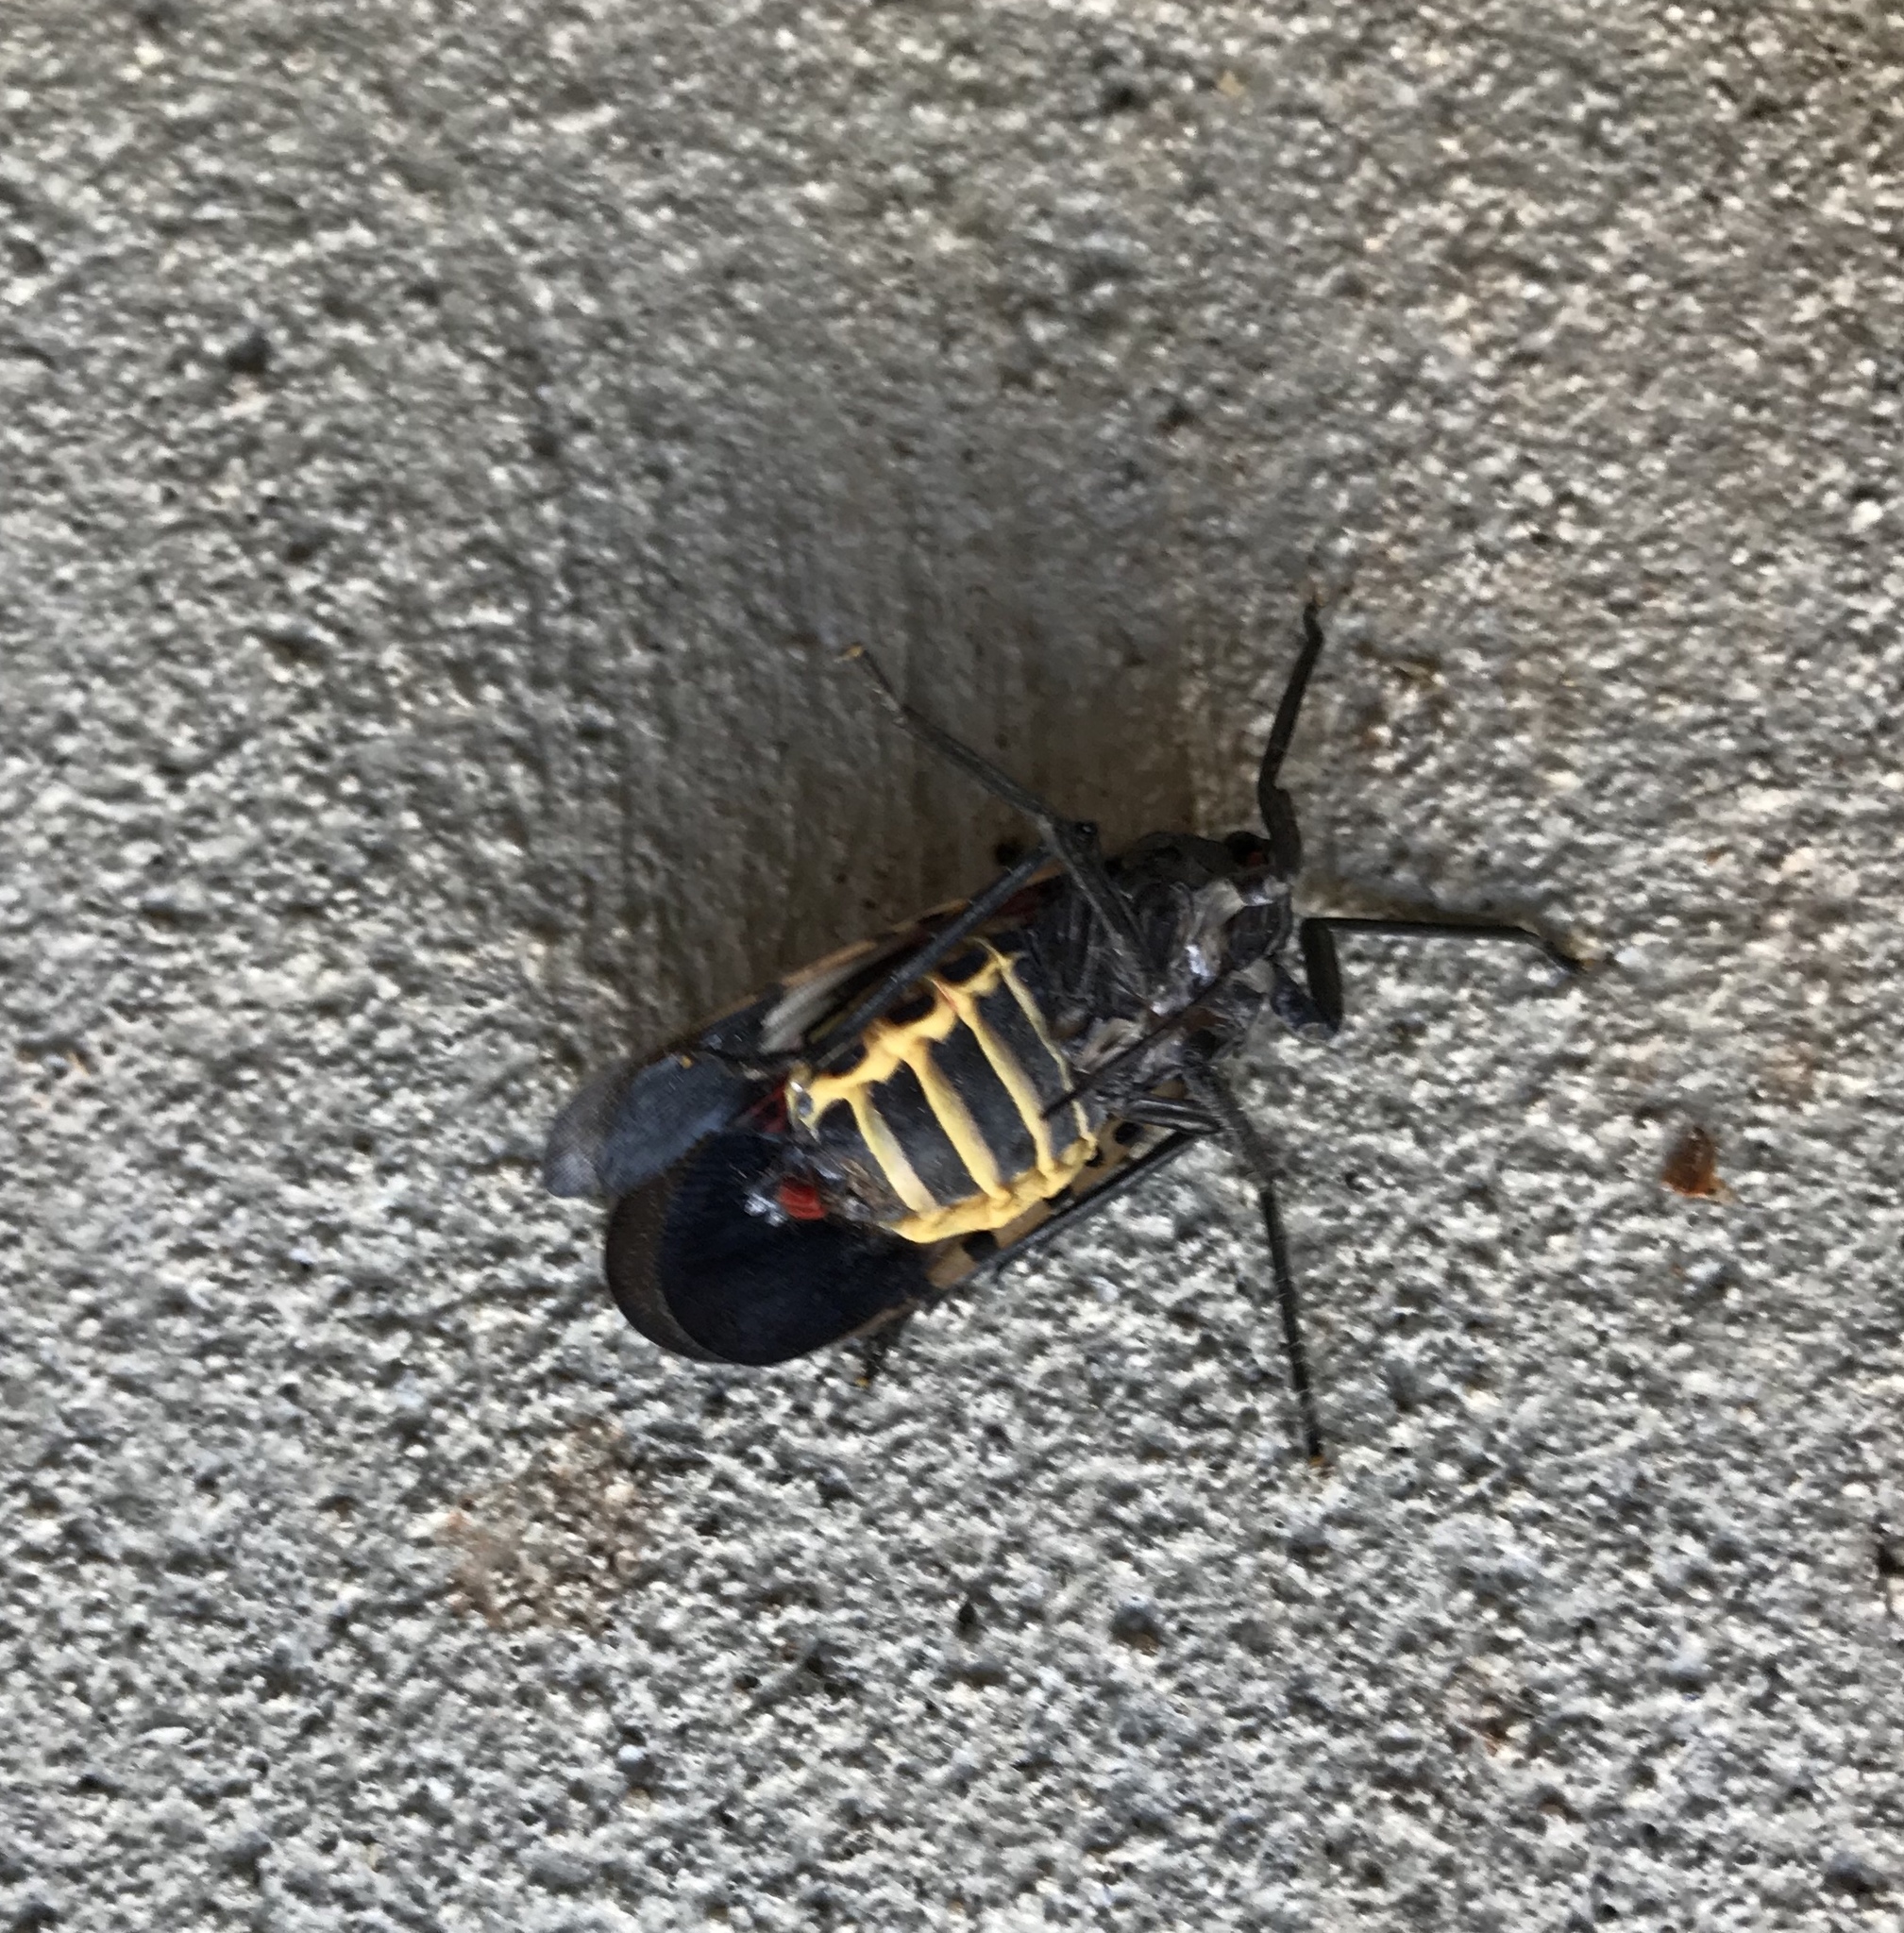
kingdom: Animalia
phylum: Arthropoda
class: Insecta
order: Hemiptera
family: Fulgoridae
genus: Lycorma
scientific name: Lycorma delicatula
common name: Spotted lanternfly
